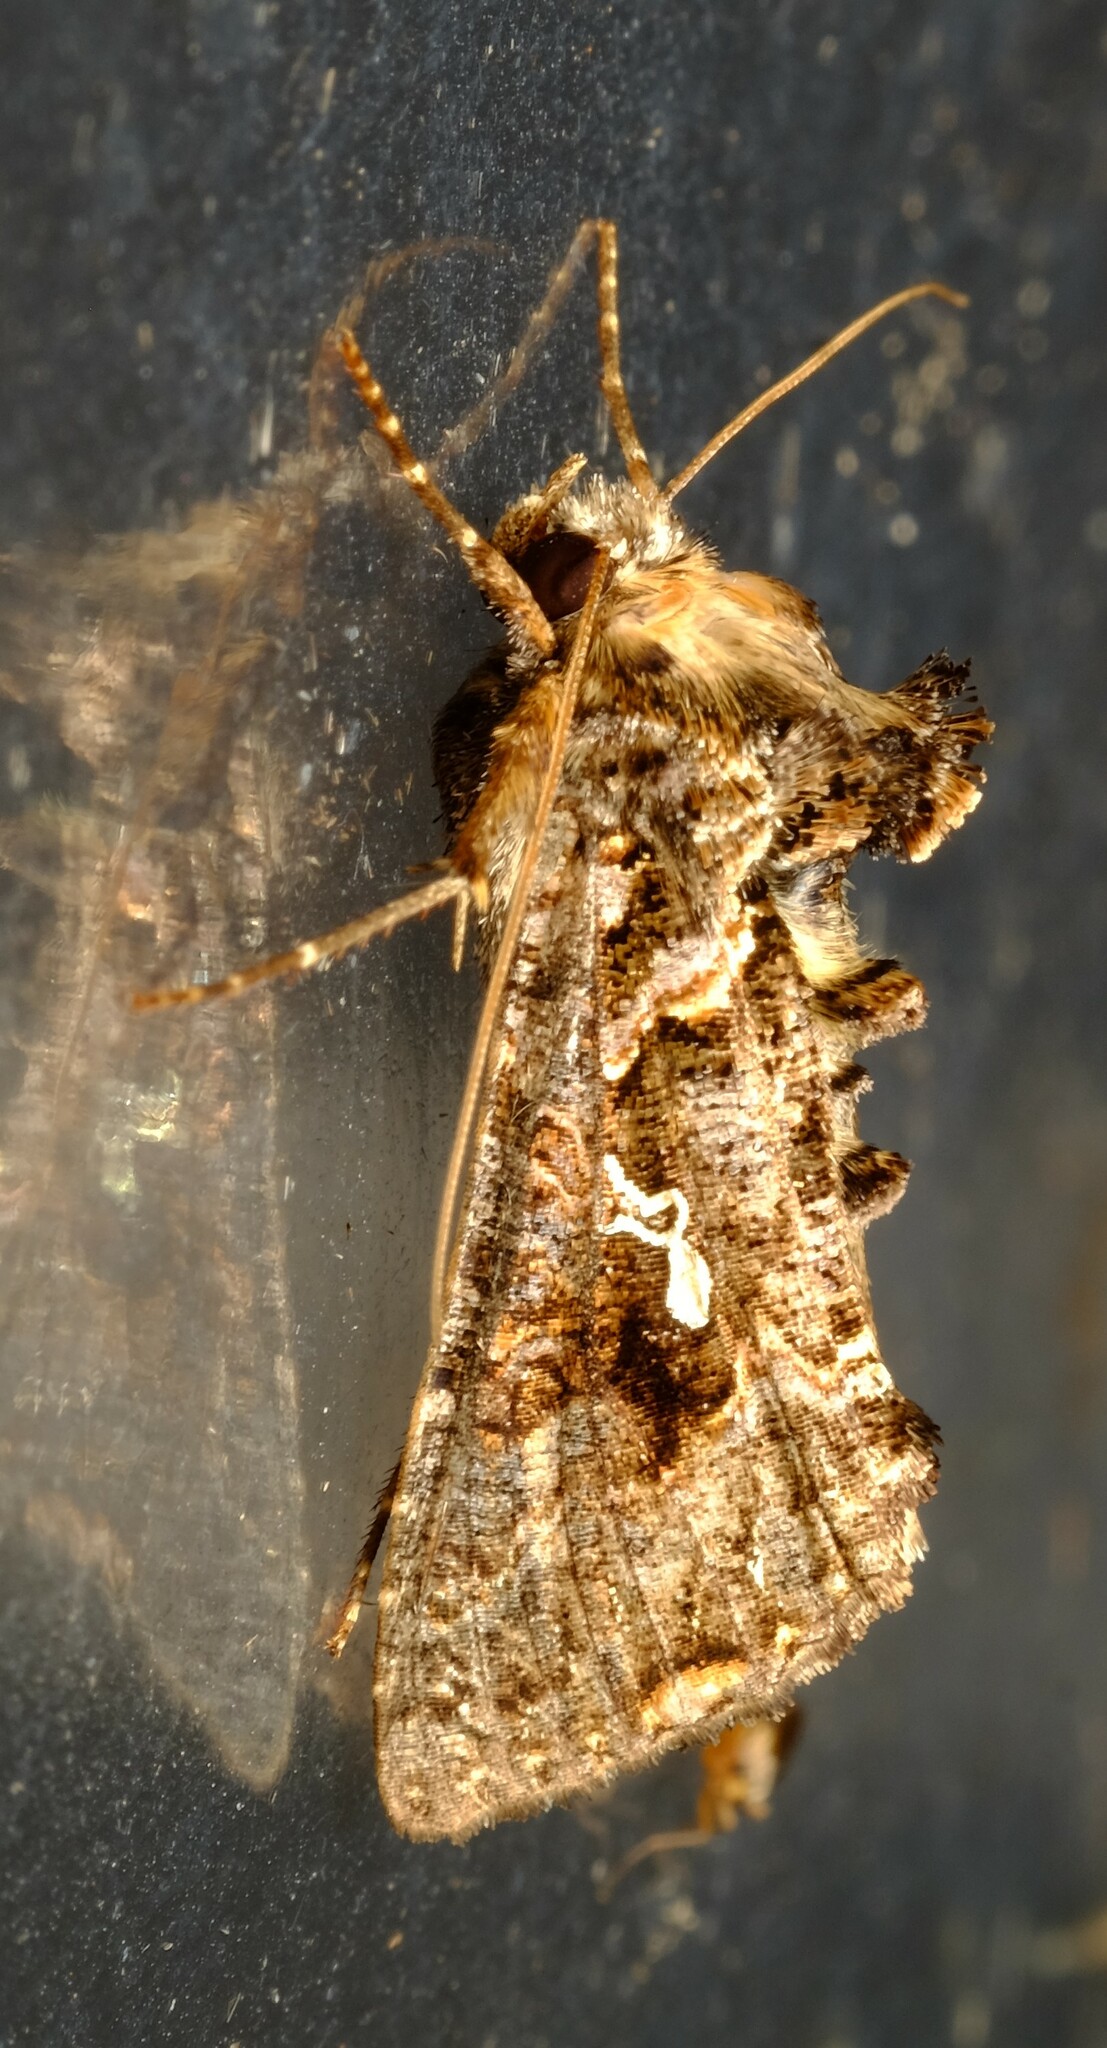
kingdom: Animalia
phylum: Arthropoda
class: Insecta
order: Lepidoptera
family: Noctuidae
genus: Ctenoplusia
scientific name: Ctenoplusia limbirena
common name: Scar bank gem
